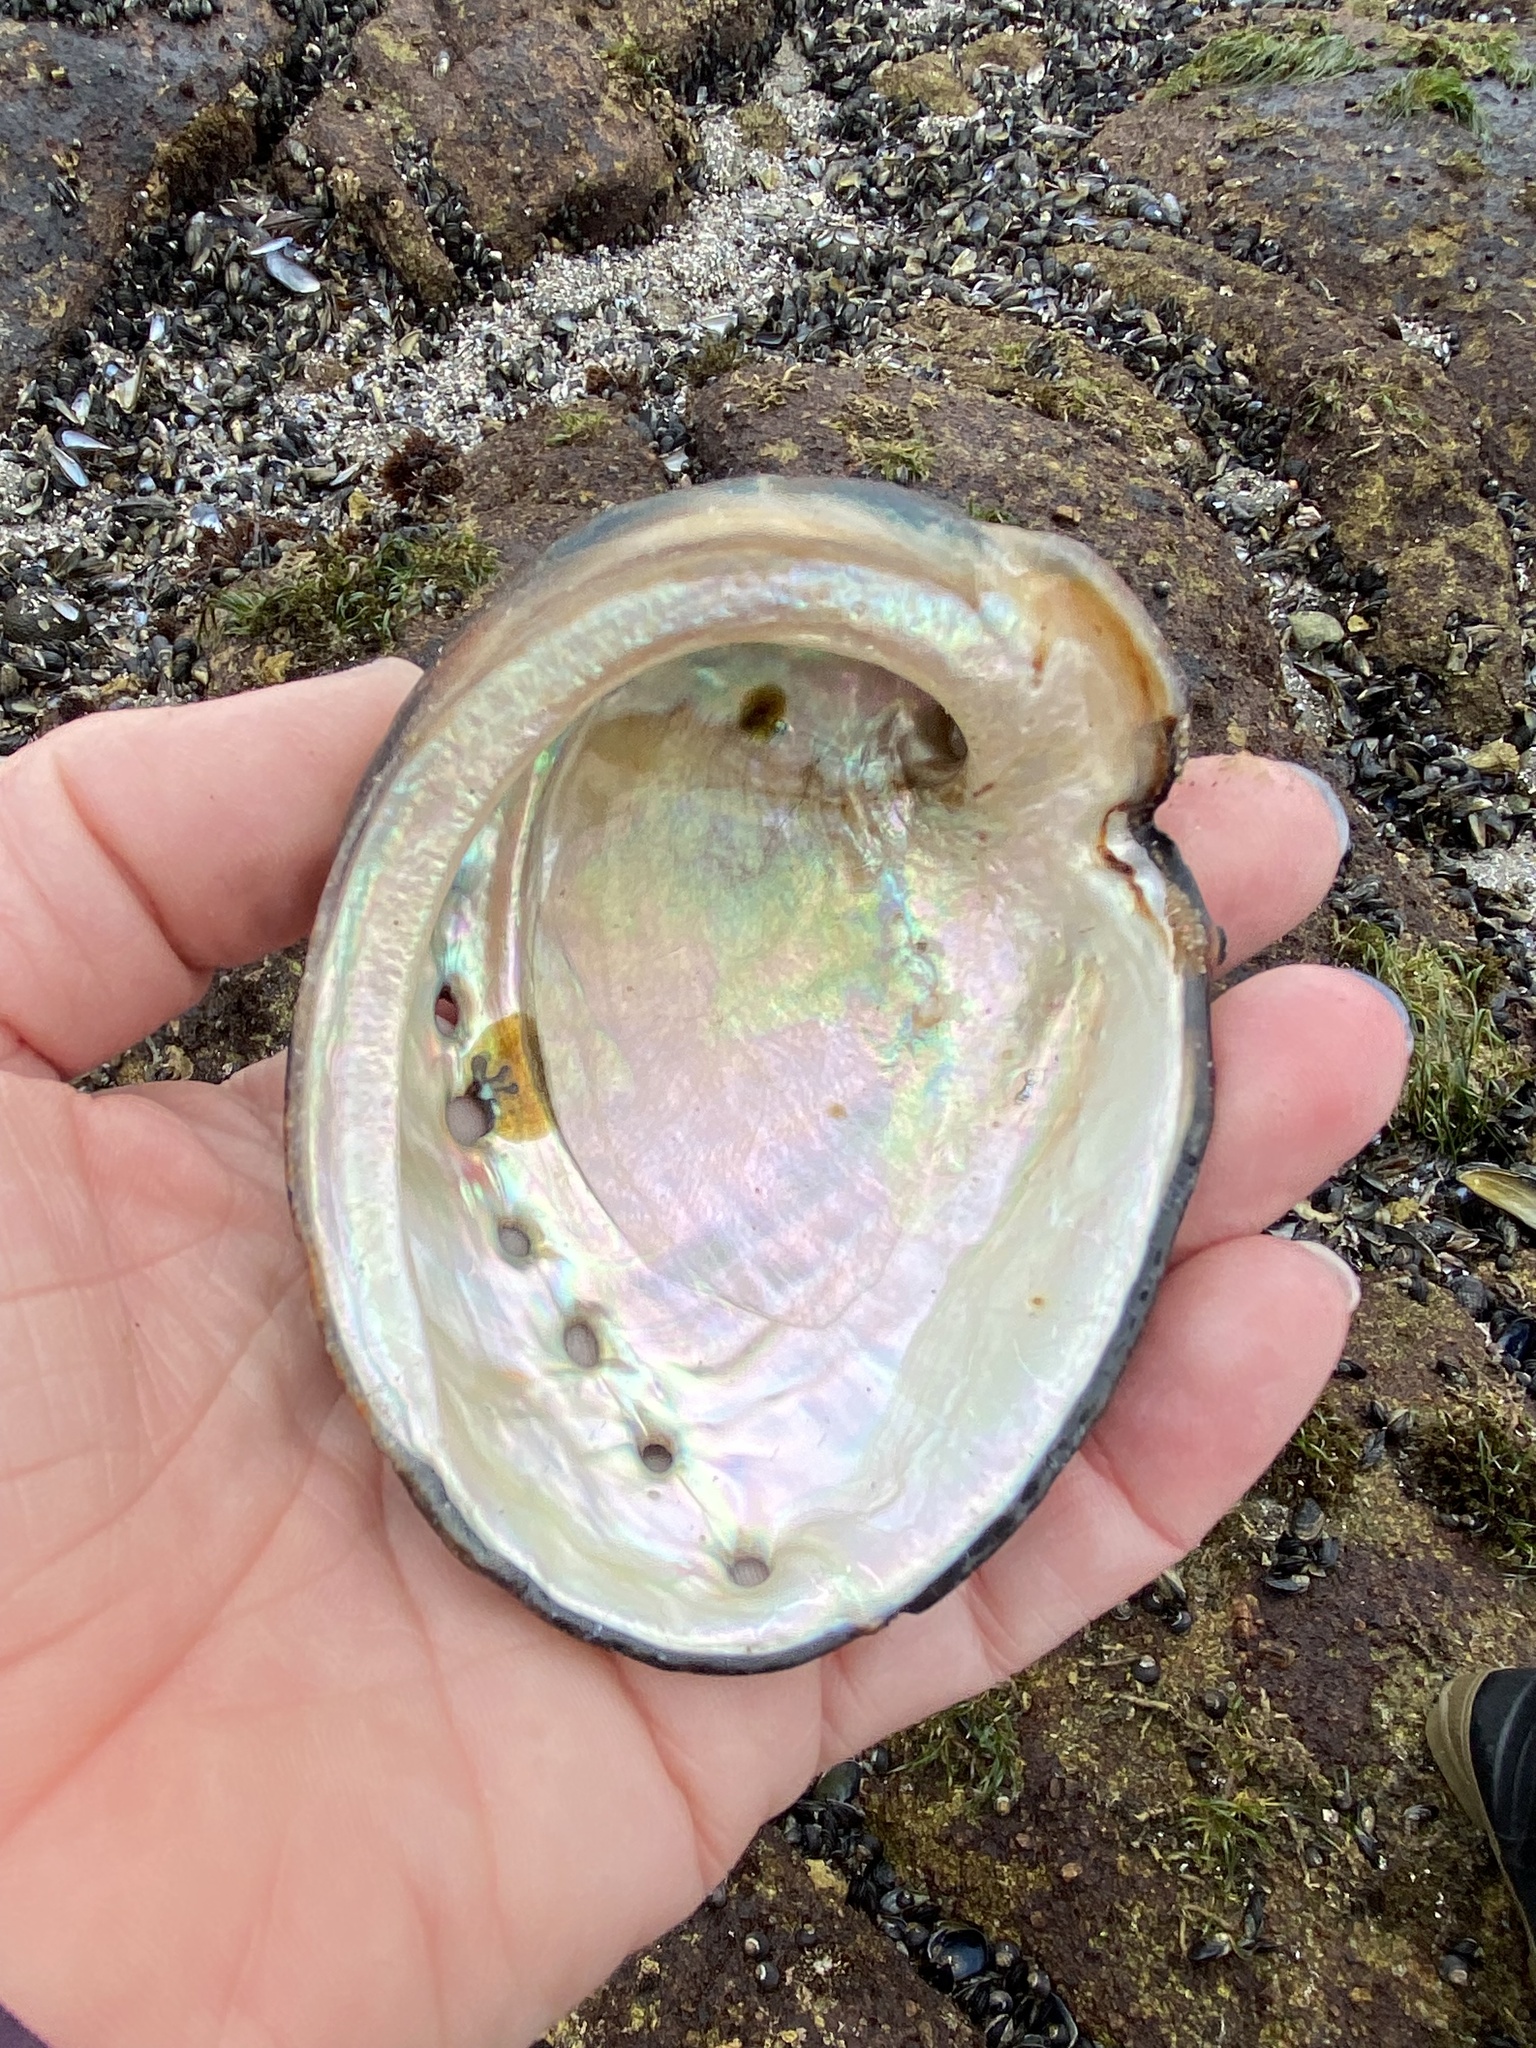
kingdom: Animalia
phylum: Mollusca
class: Gastropoda
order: Lepetellida
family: Haliotidae
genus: Haliotis
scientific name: Haliotis cracherodii
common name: Black abalone
